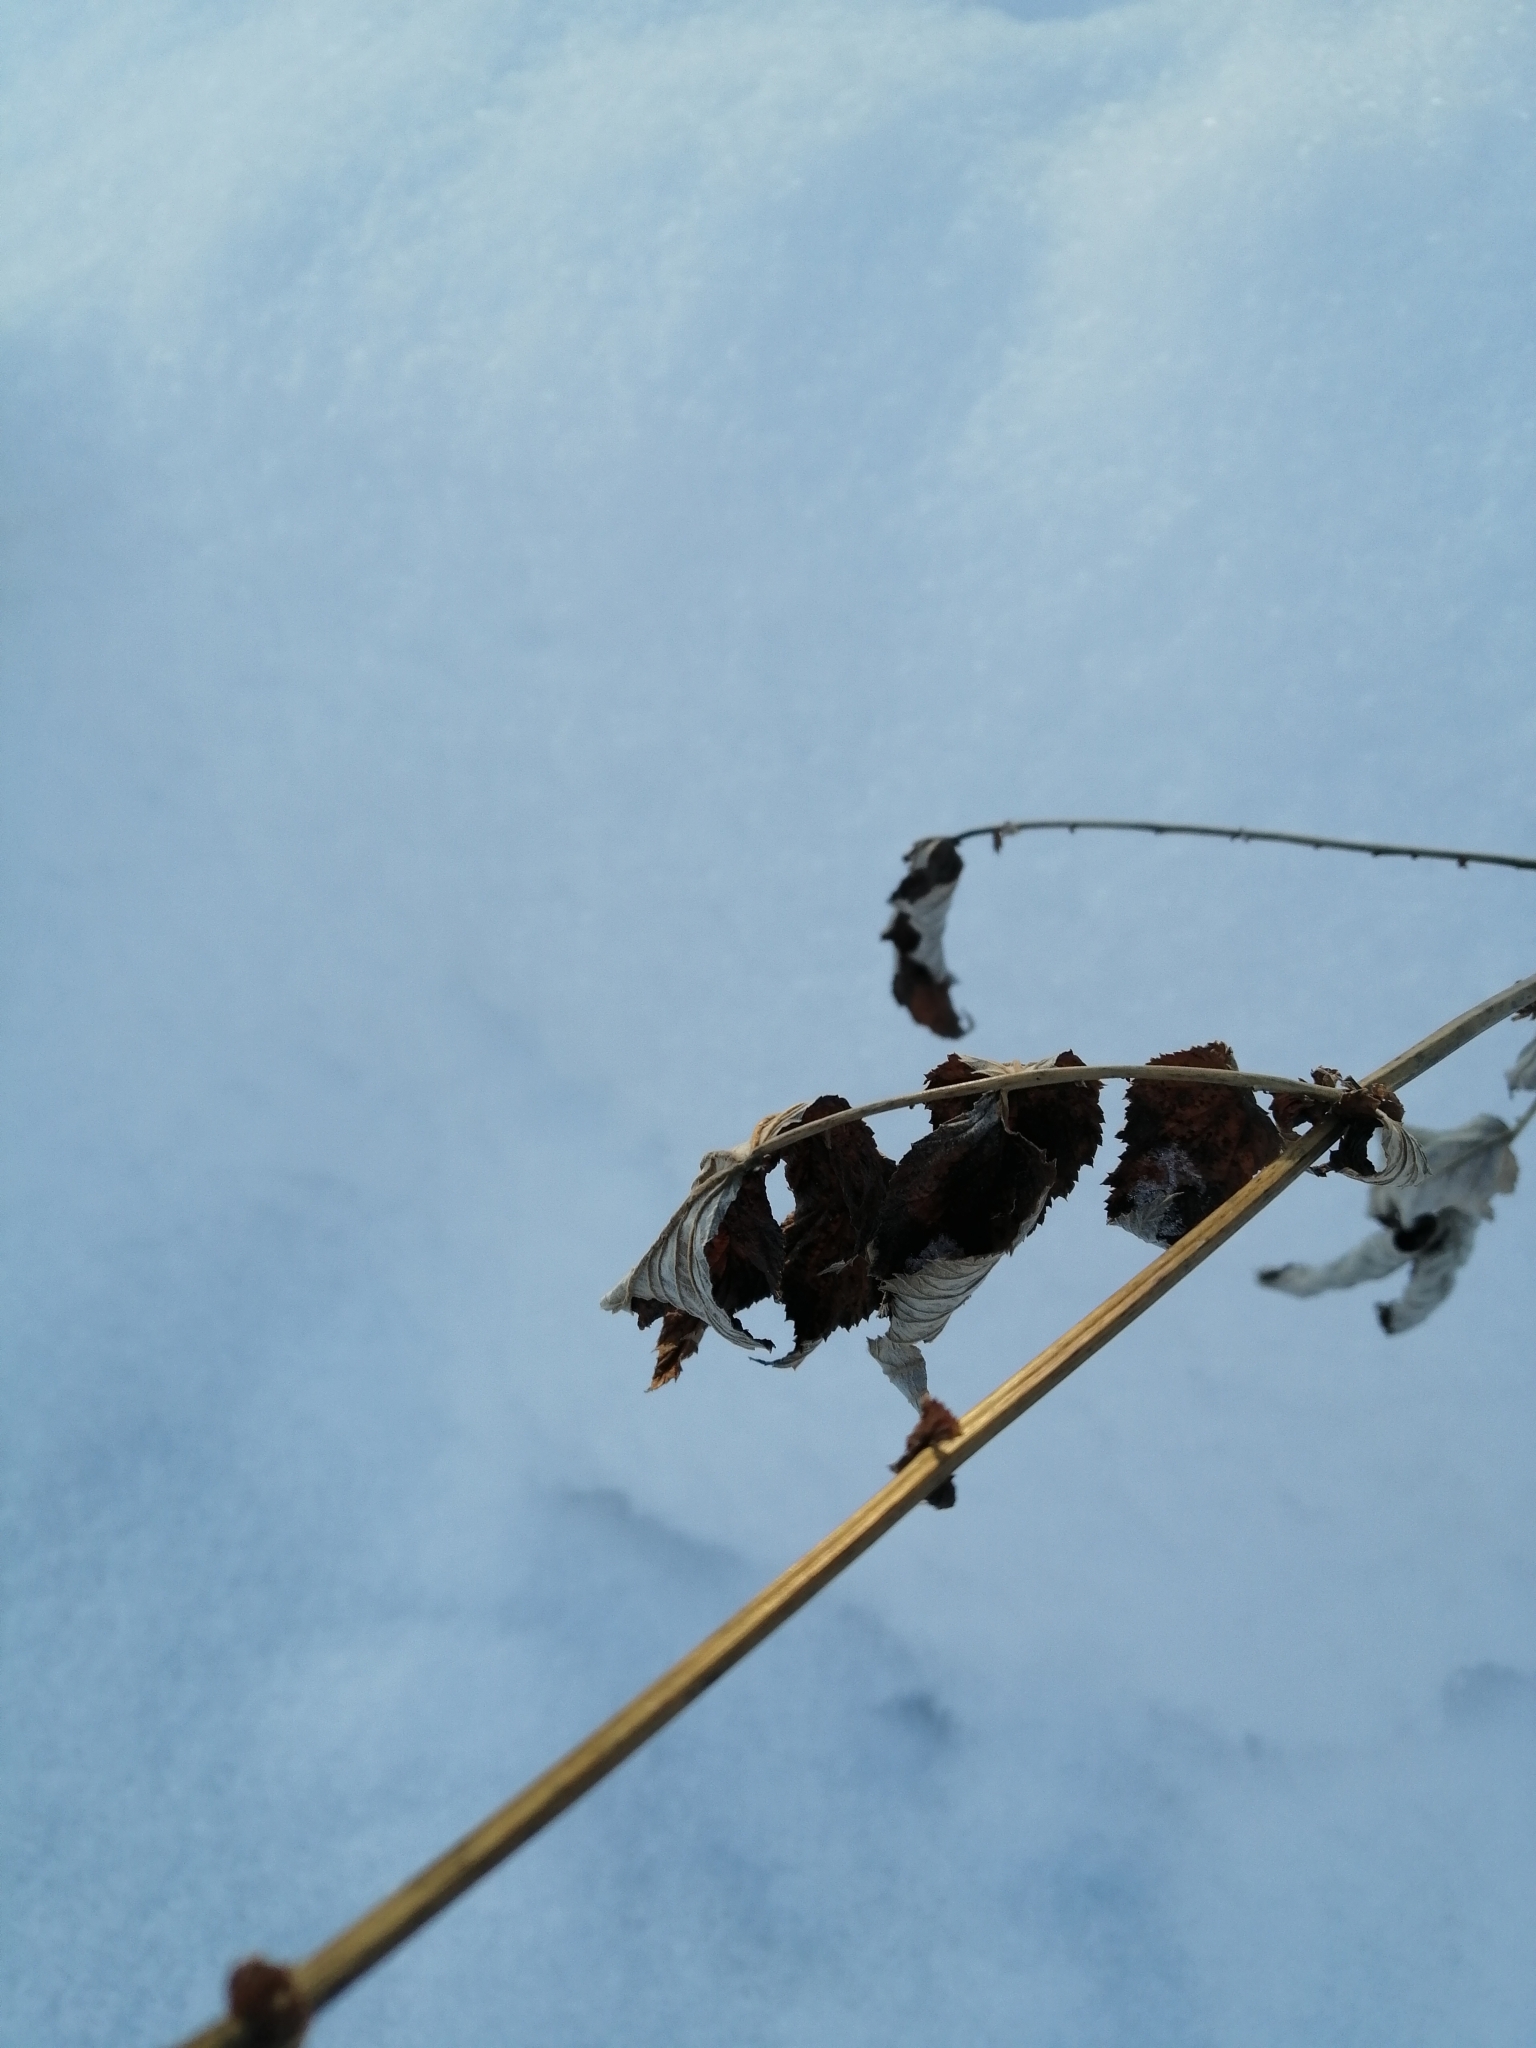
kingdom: Plantae
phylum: Tracheophyta
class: Magnoliopsida
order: Rosales
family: Rosaceae
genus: Filipendula
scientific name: Filipendula ulmaria
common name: Meadowsweet
